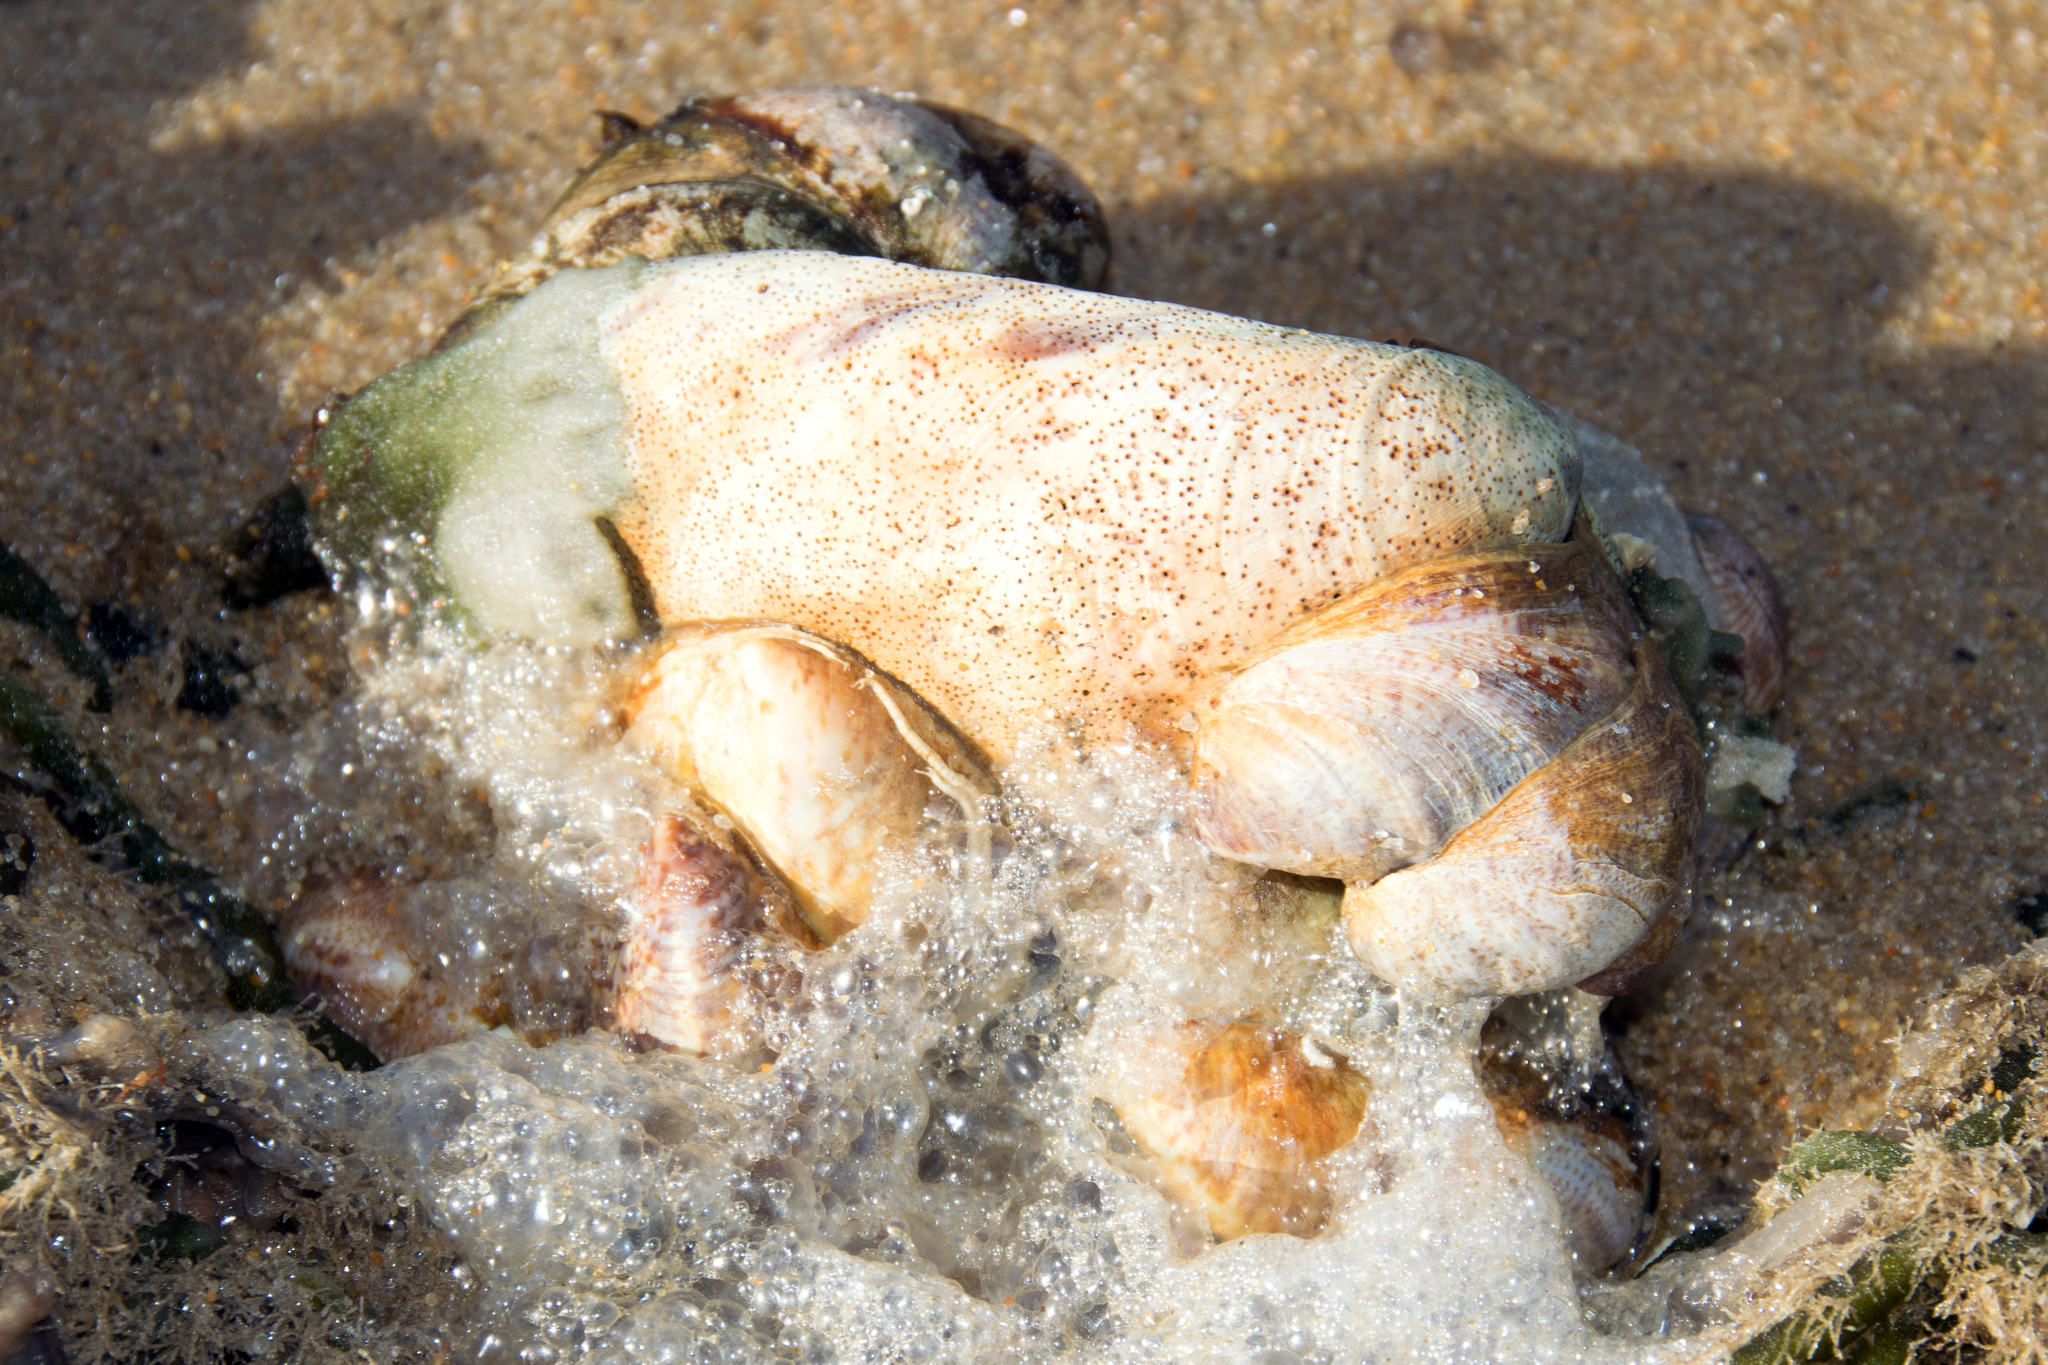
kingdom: Animalia
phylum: Mollusca
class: Gastropoda
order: Littorinimorpha
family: Calyptraeidae
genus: Crepidula
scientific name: Crepidula fornicata
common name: Slipper limpet
